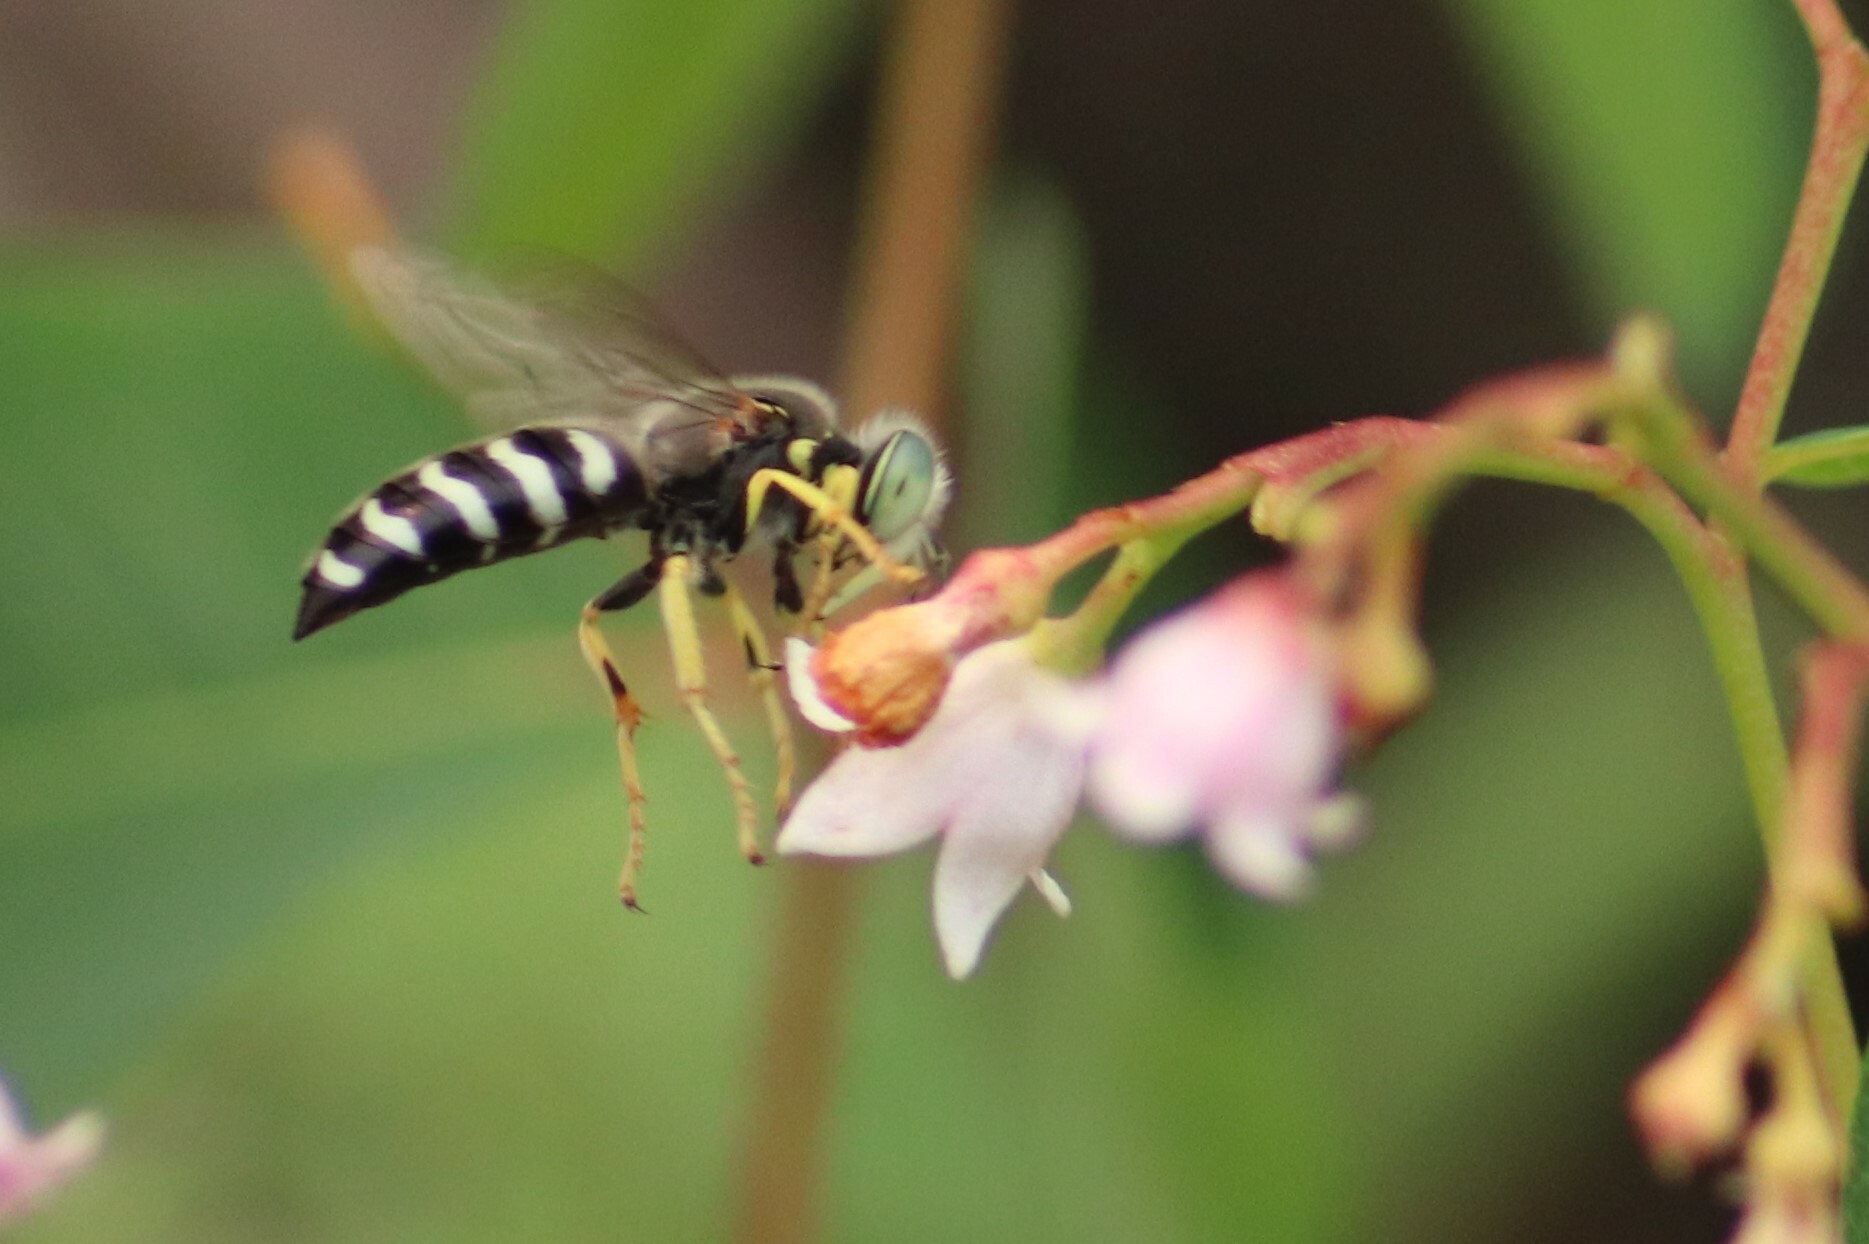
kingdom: Animalia
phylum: Arthropoda
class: Insecta
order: Hymenoptera
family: Crabronidae
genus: Bembix
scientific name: Bembix americana
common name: American sand wasp
